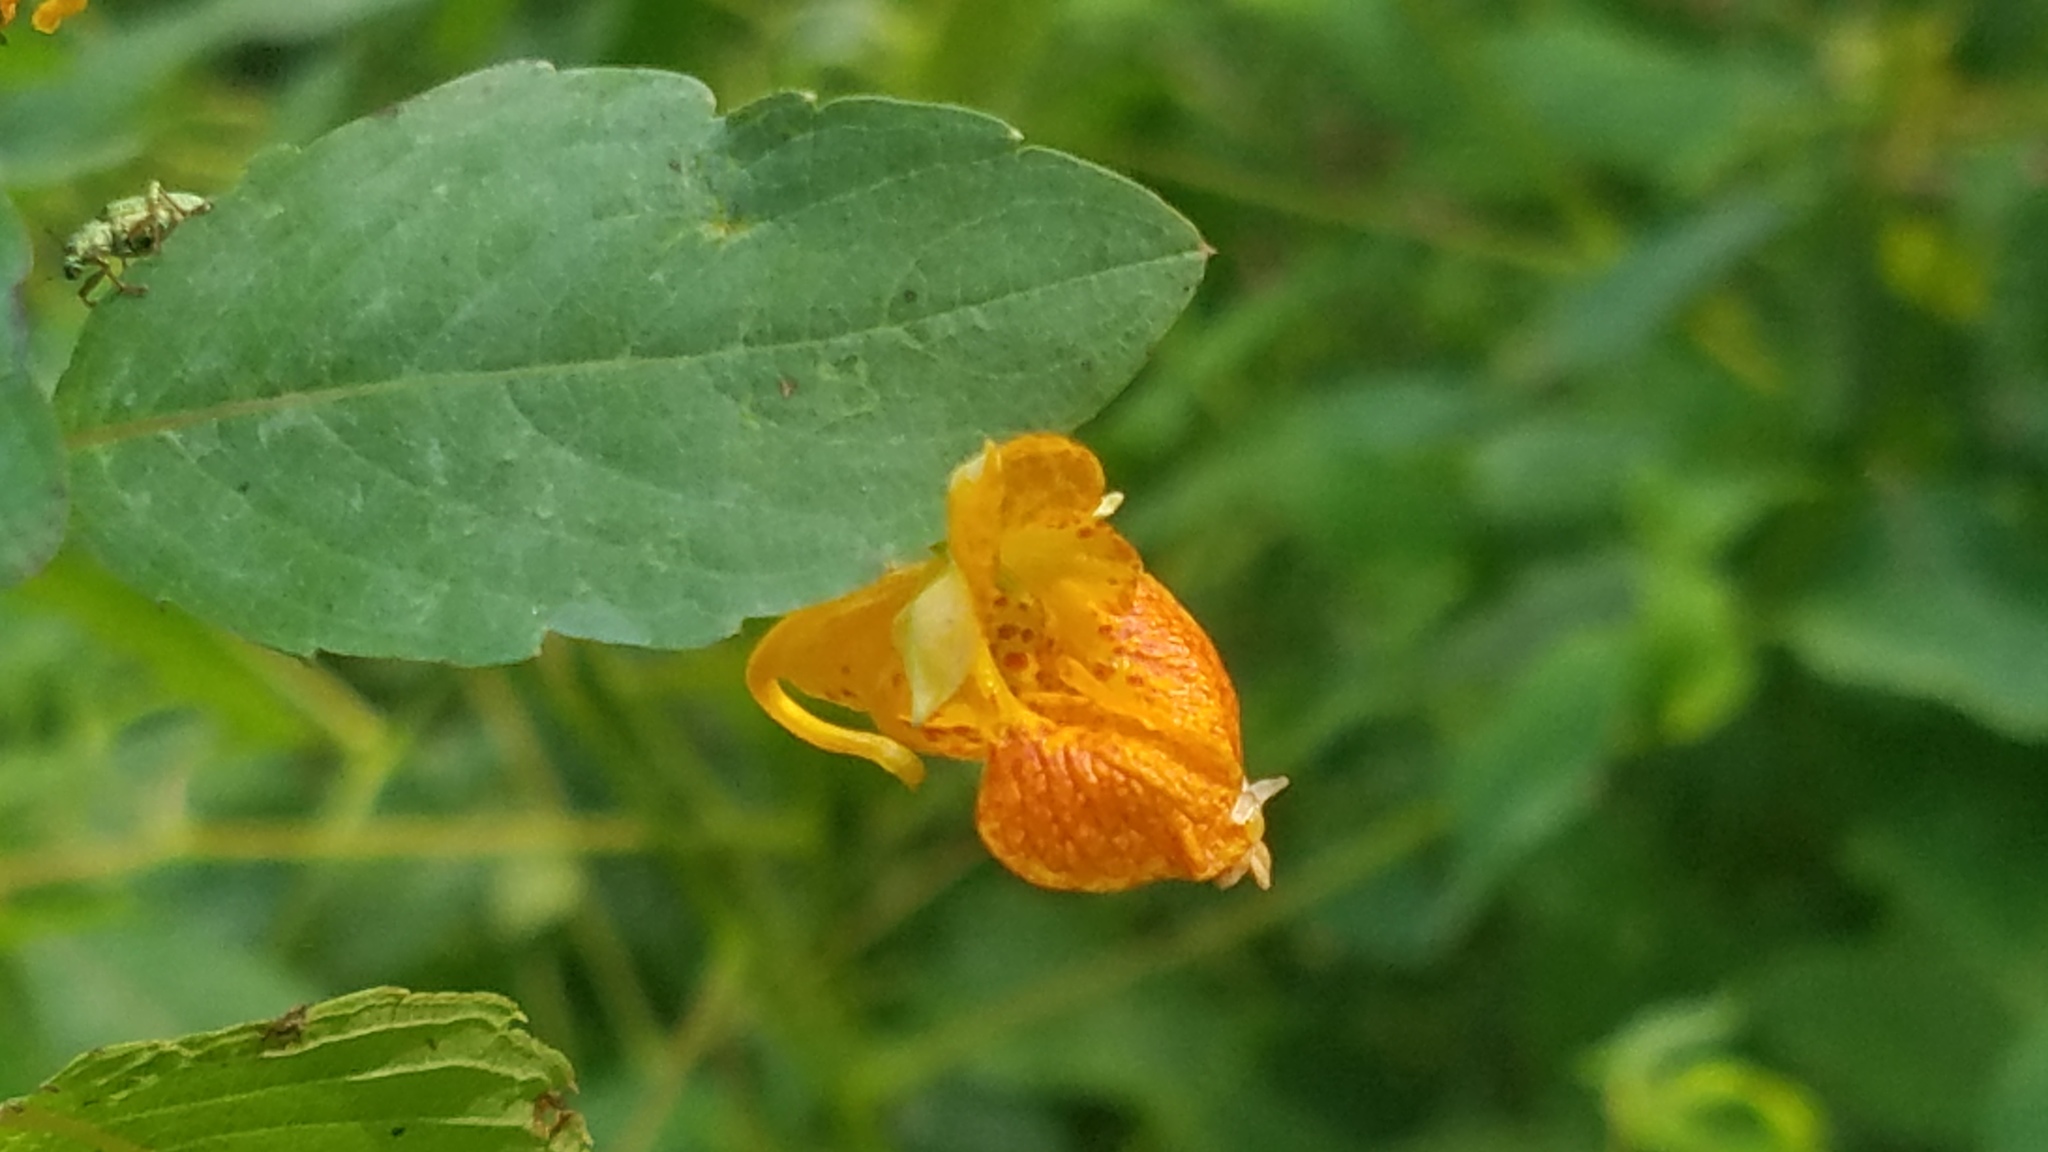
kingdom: Plantae
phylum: Tracheophyta
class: Magnoliopsida
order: Ericales
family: Balsaminaceae
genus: Impatiens
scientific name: Impatiens capensis
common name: Orange balsam
